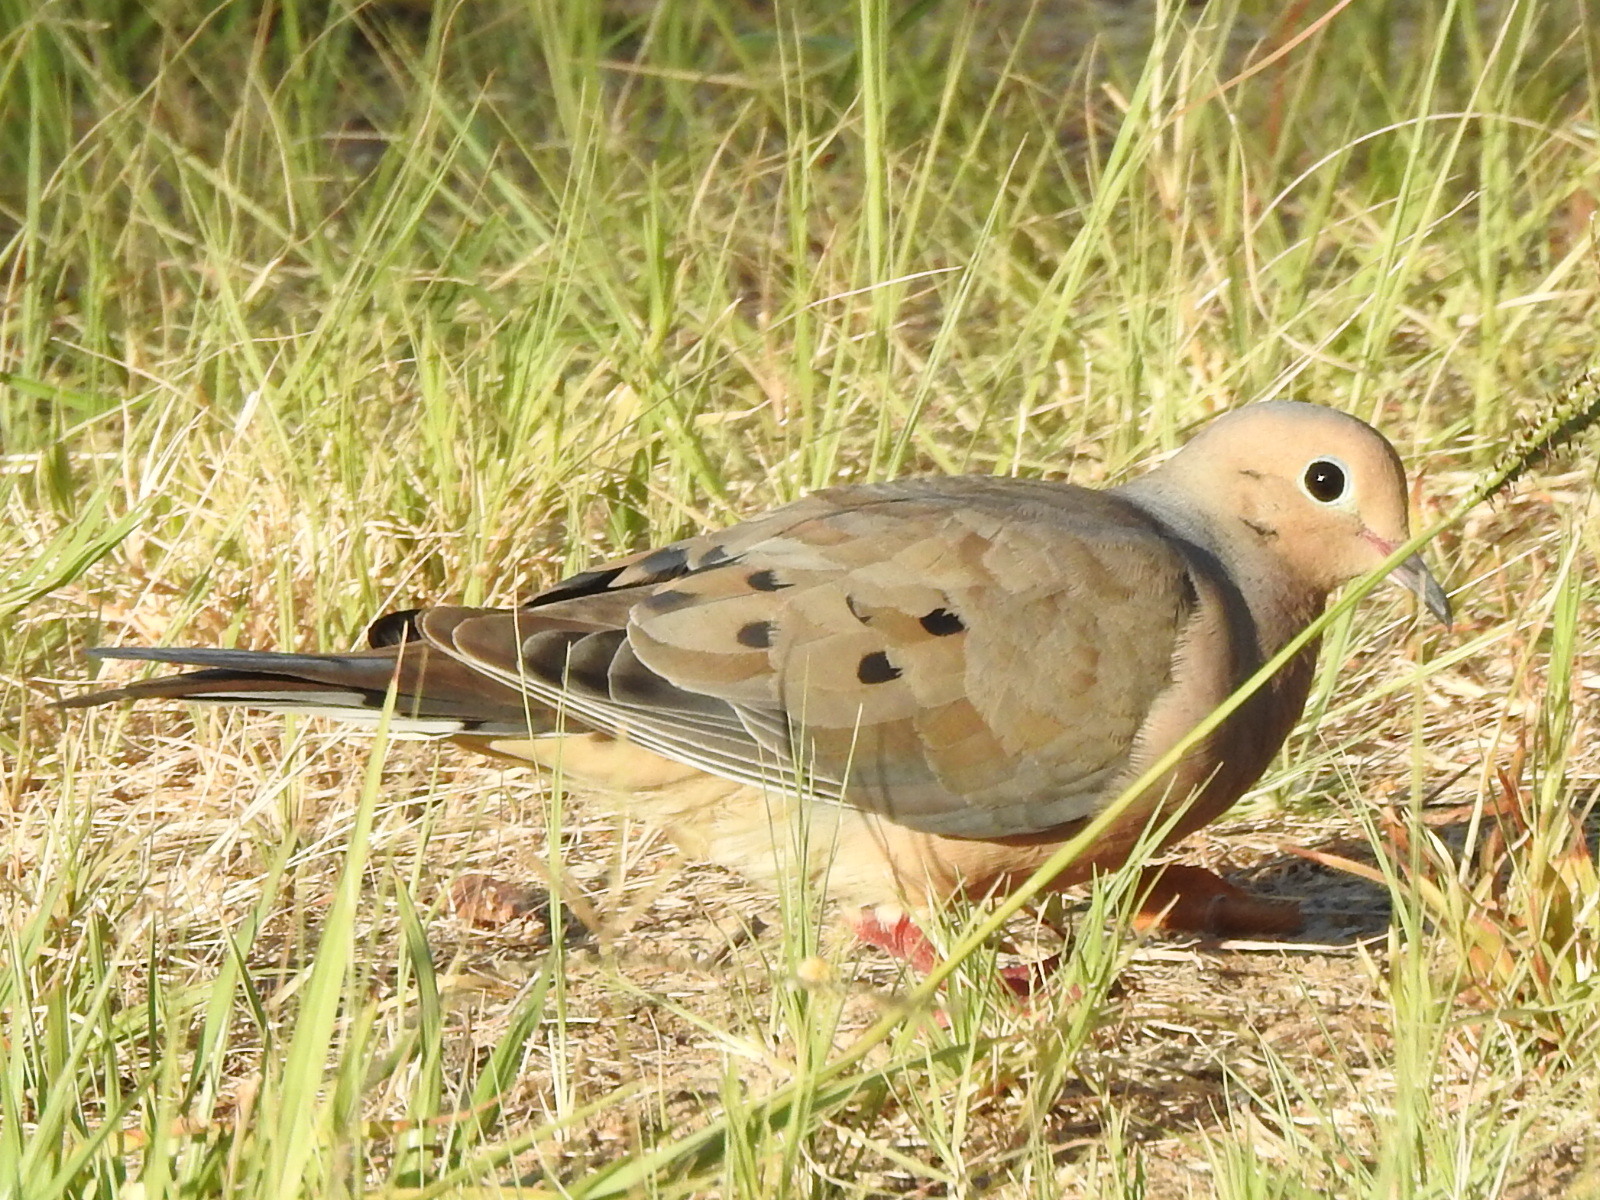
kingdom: Animalia
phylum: Chordata
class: Aves
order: Columbiformes
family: Columbidae
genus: Zenaida
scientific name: Zenaida macroura
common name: Mourning dove
